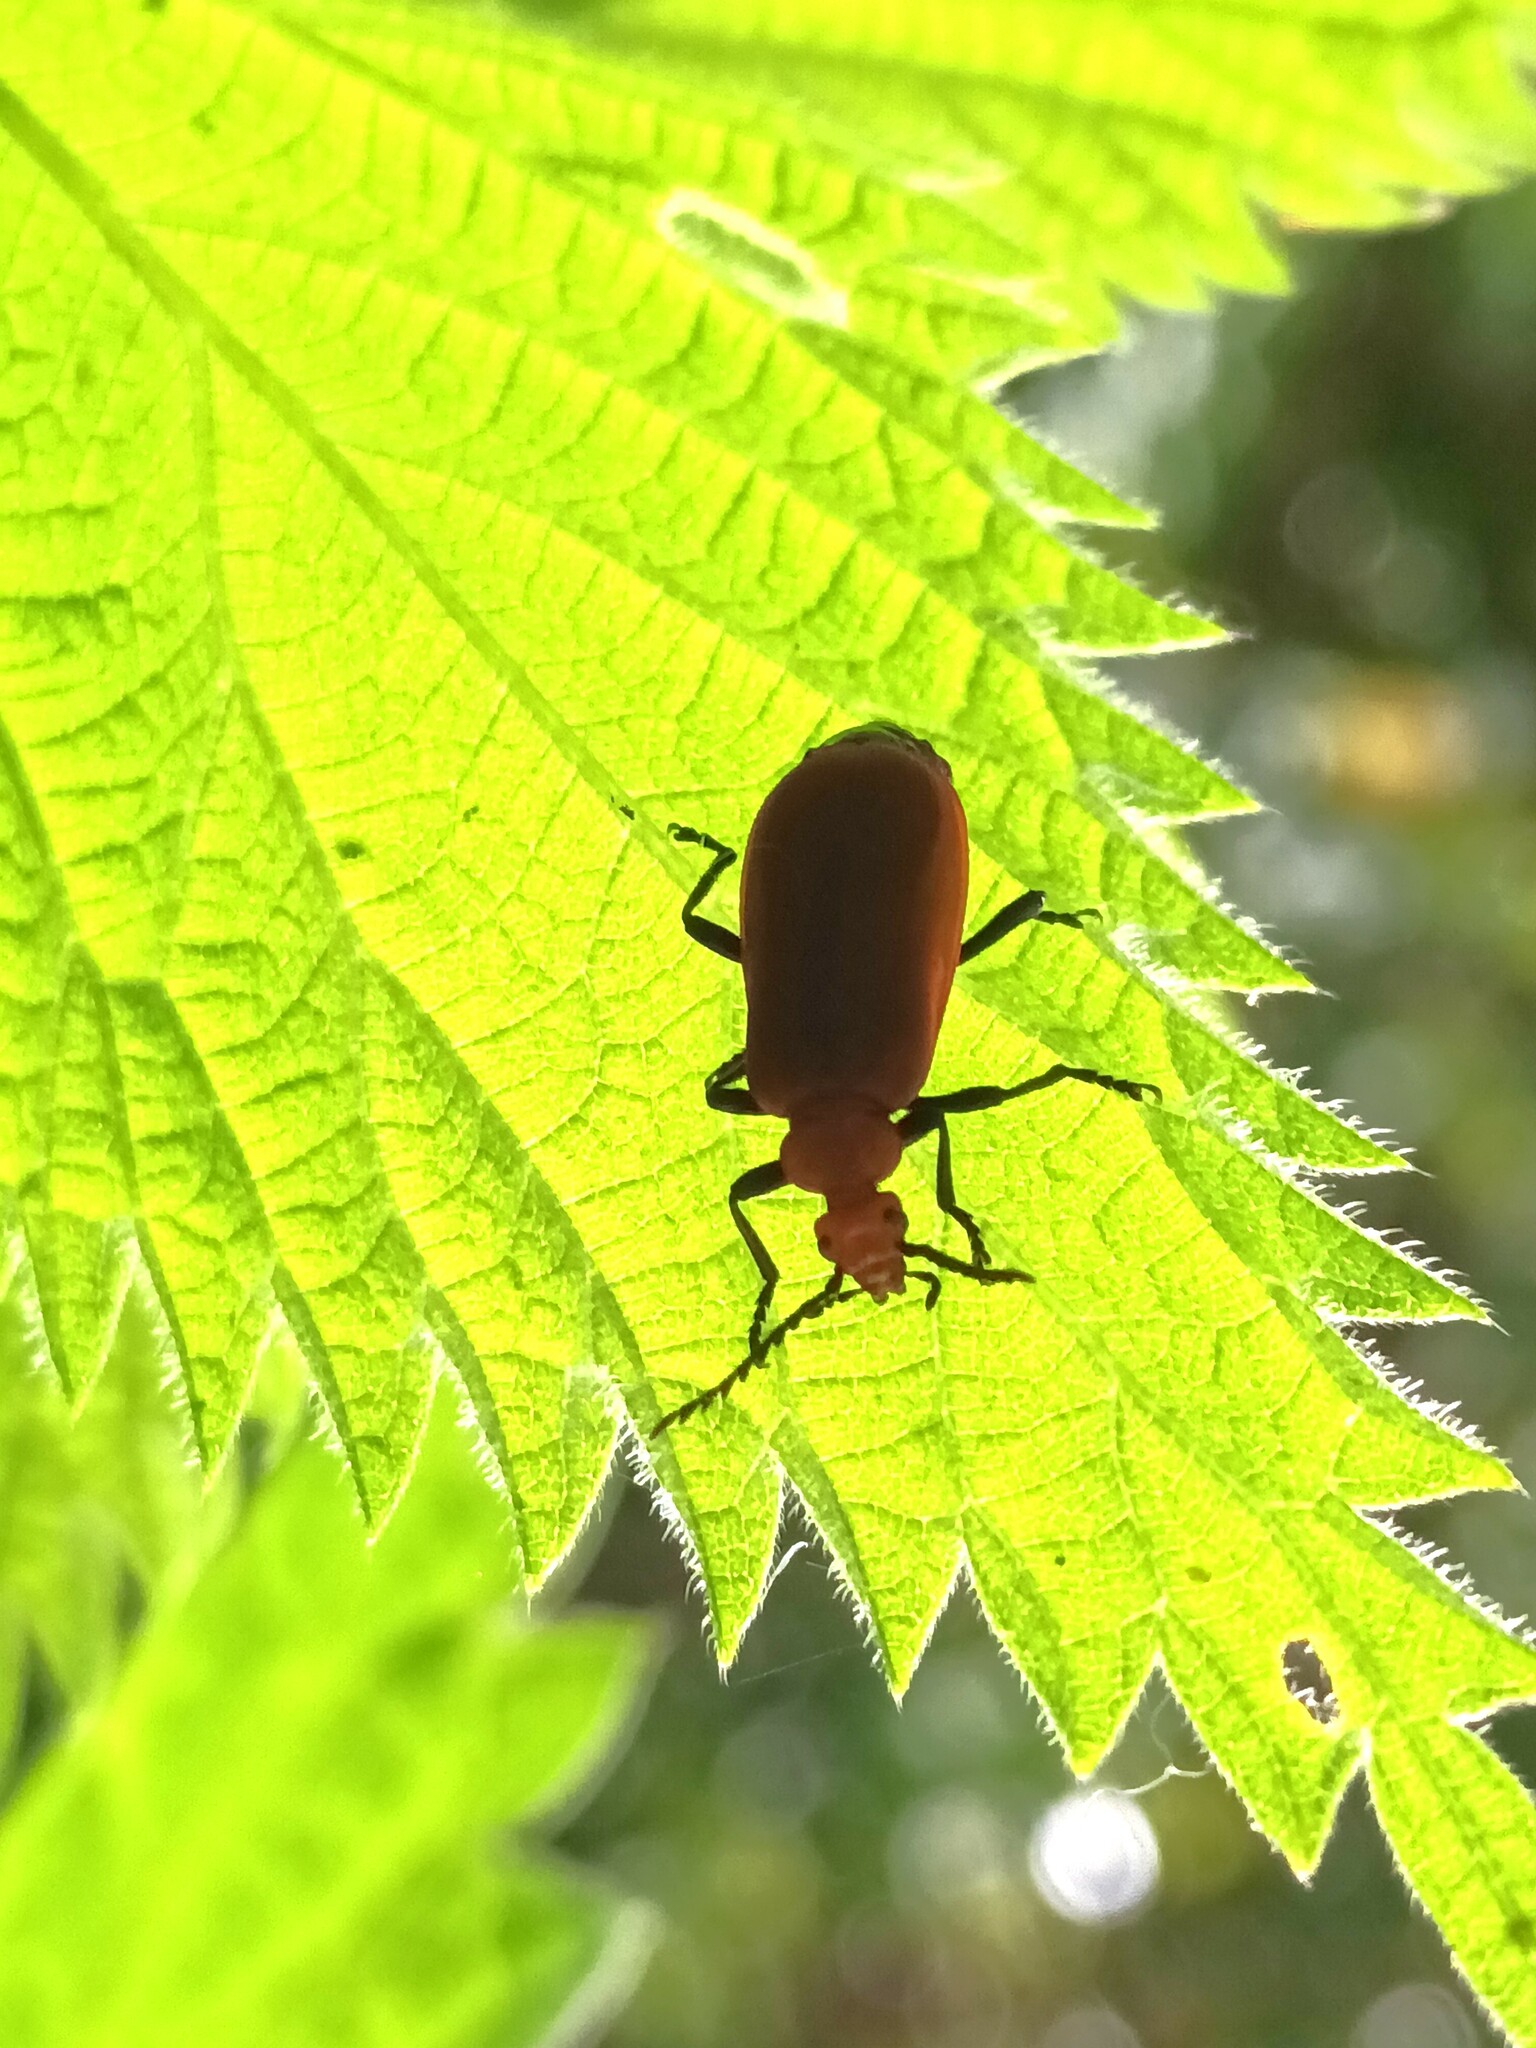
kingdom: Animalia
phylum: Arthropoda
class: Insecta
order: Coleoptera
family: Pyrochroidae
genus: Pyrochroa
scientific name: Pyrochroa serraticornis
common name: Red-headed cardinal beetle
